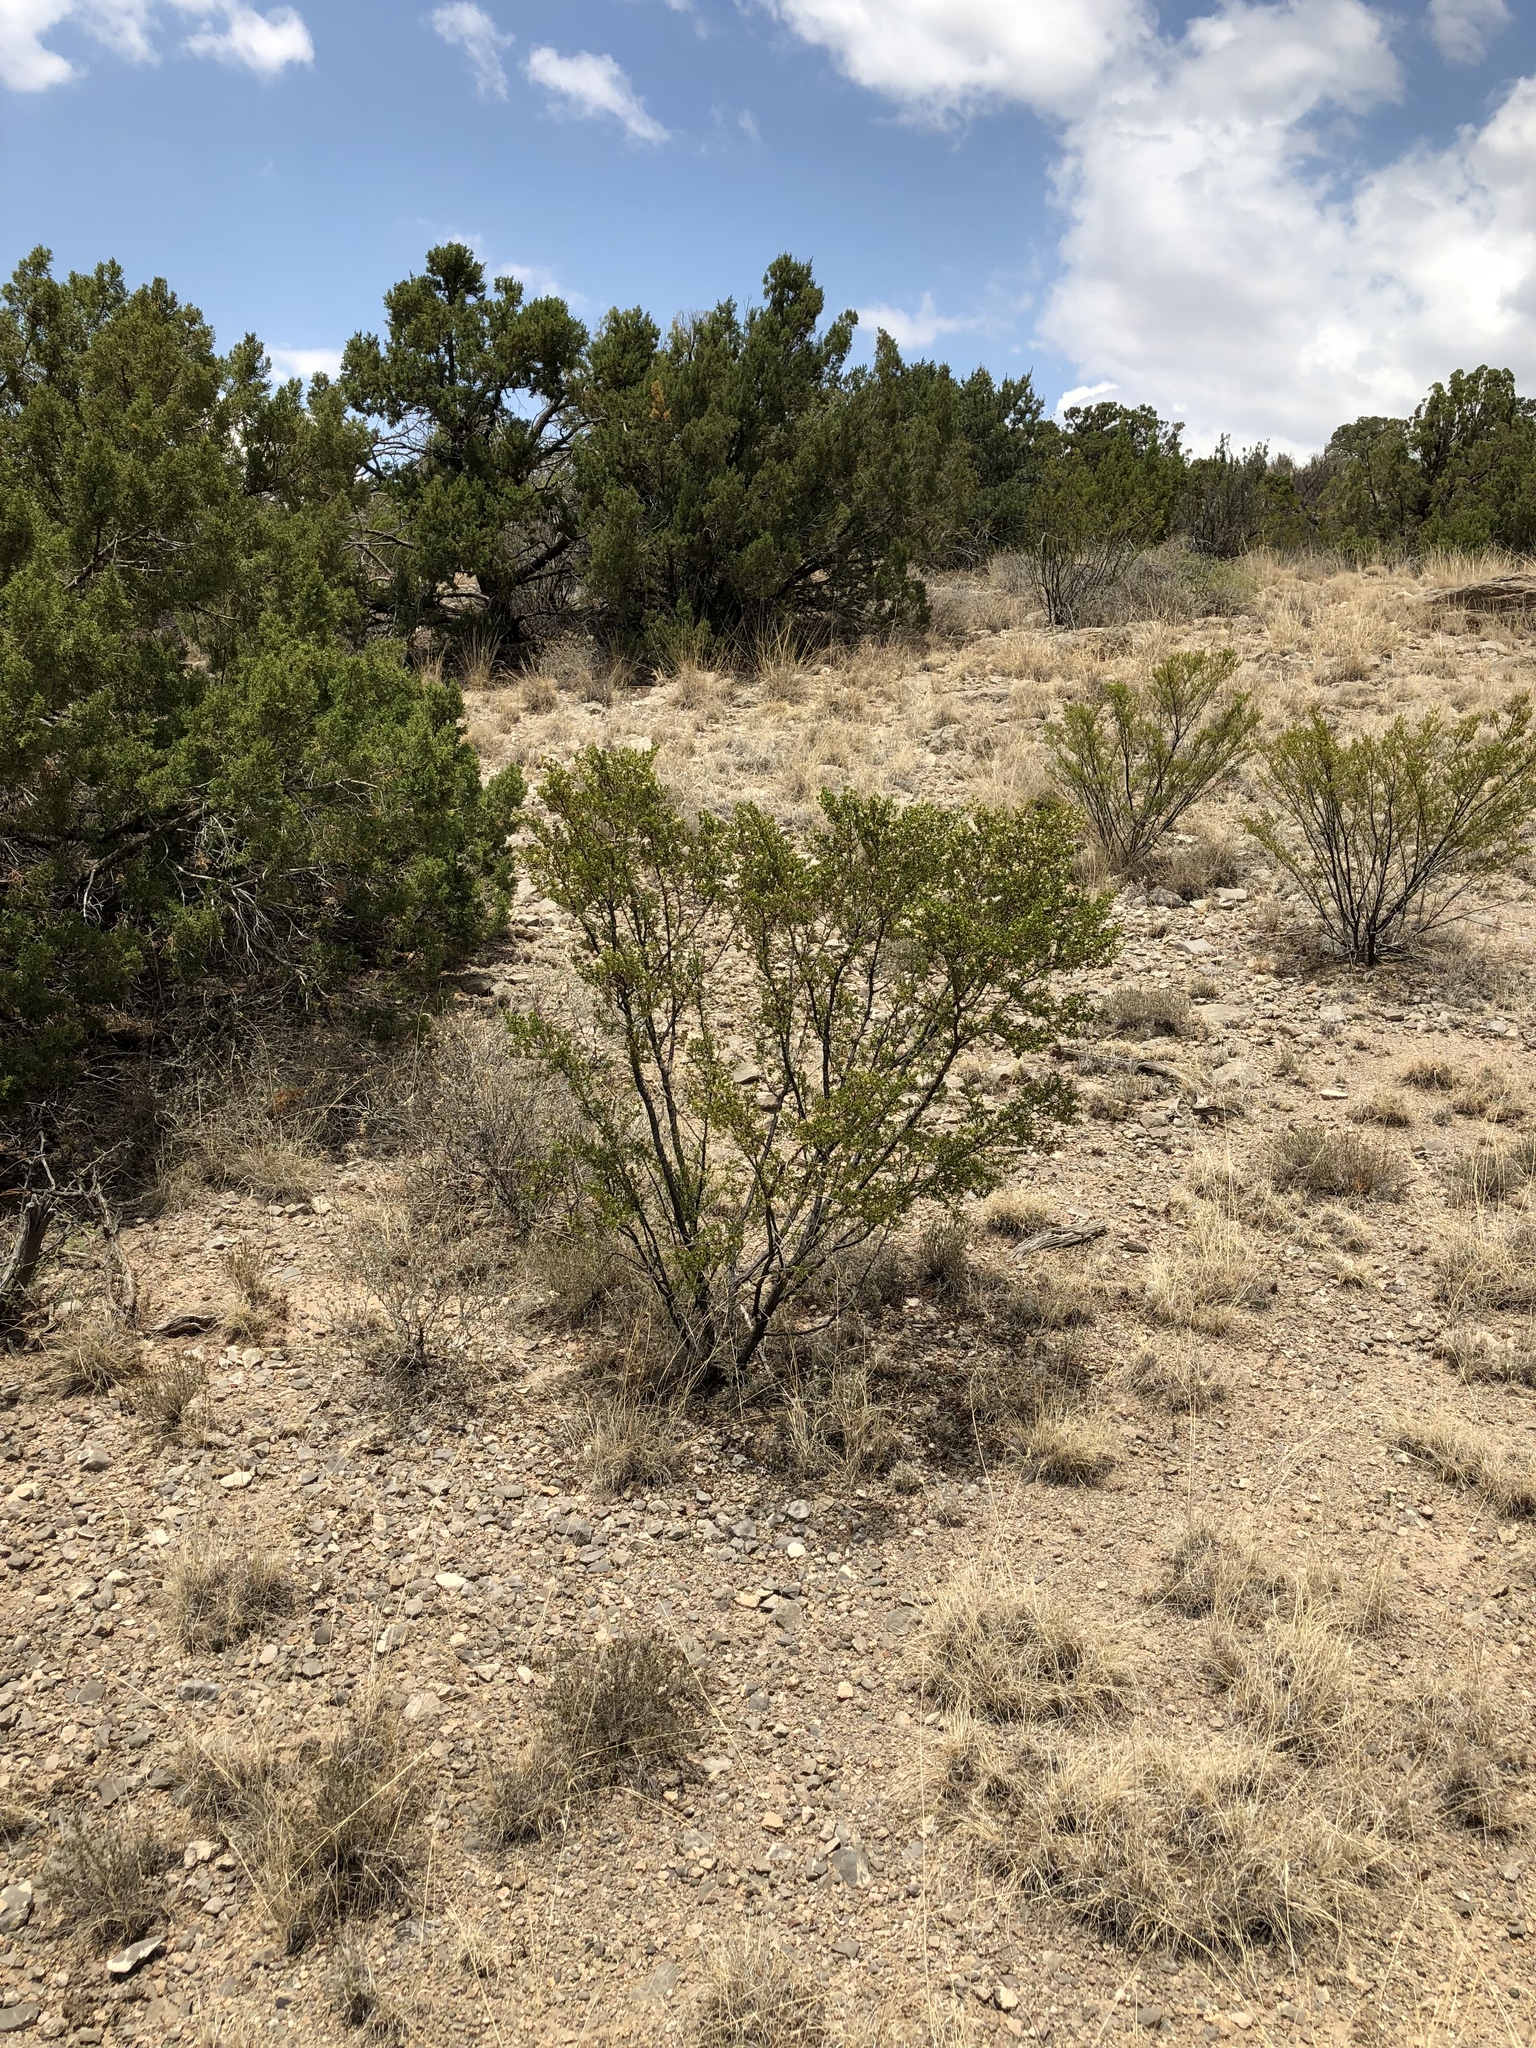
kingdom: Plantae
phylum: Tracheophyta
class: Magnoliopsida
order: Zygophyllales
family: Zygophyllaceae
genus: Larrea
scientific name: Larrea tridentata
